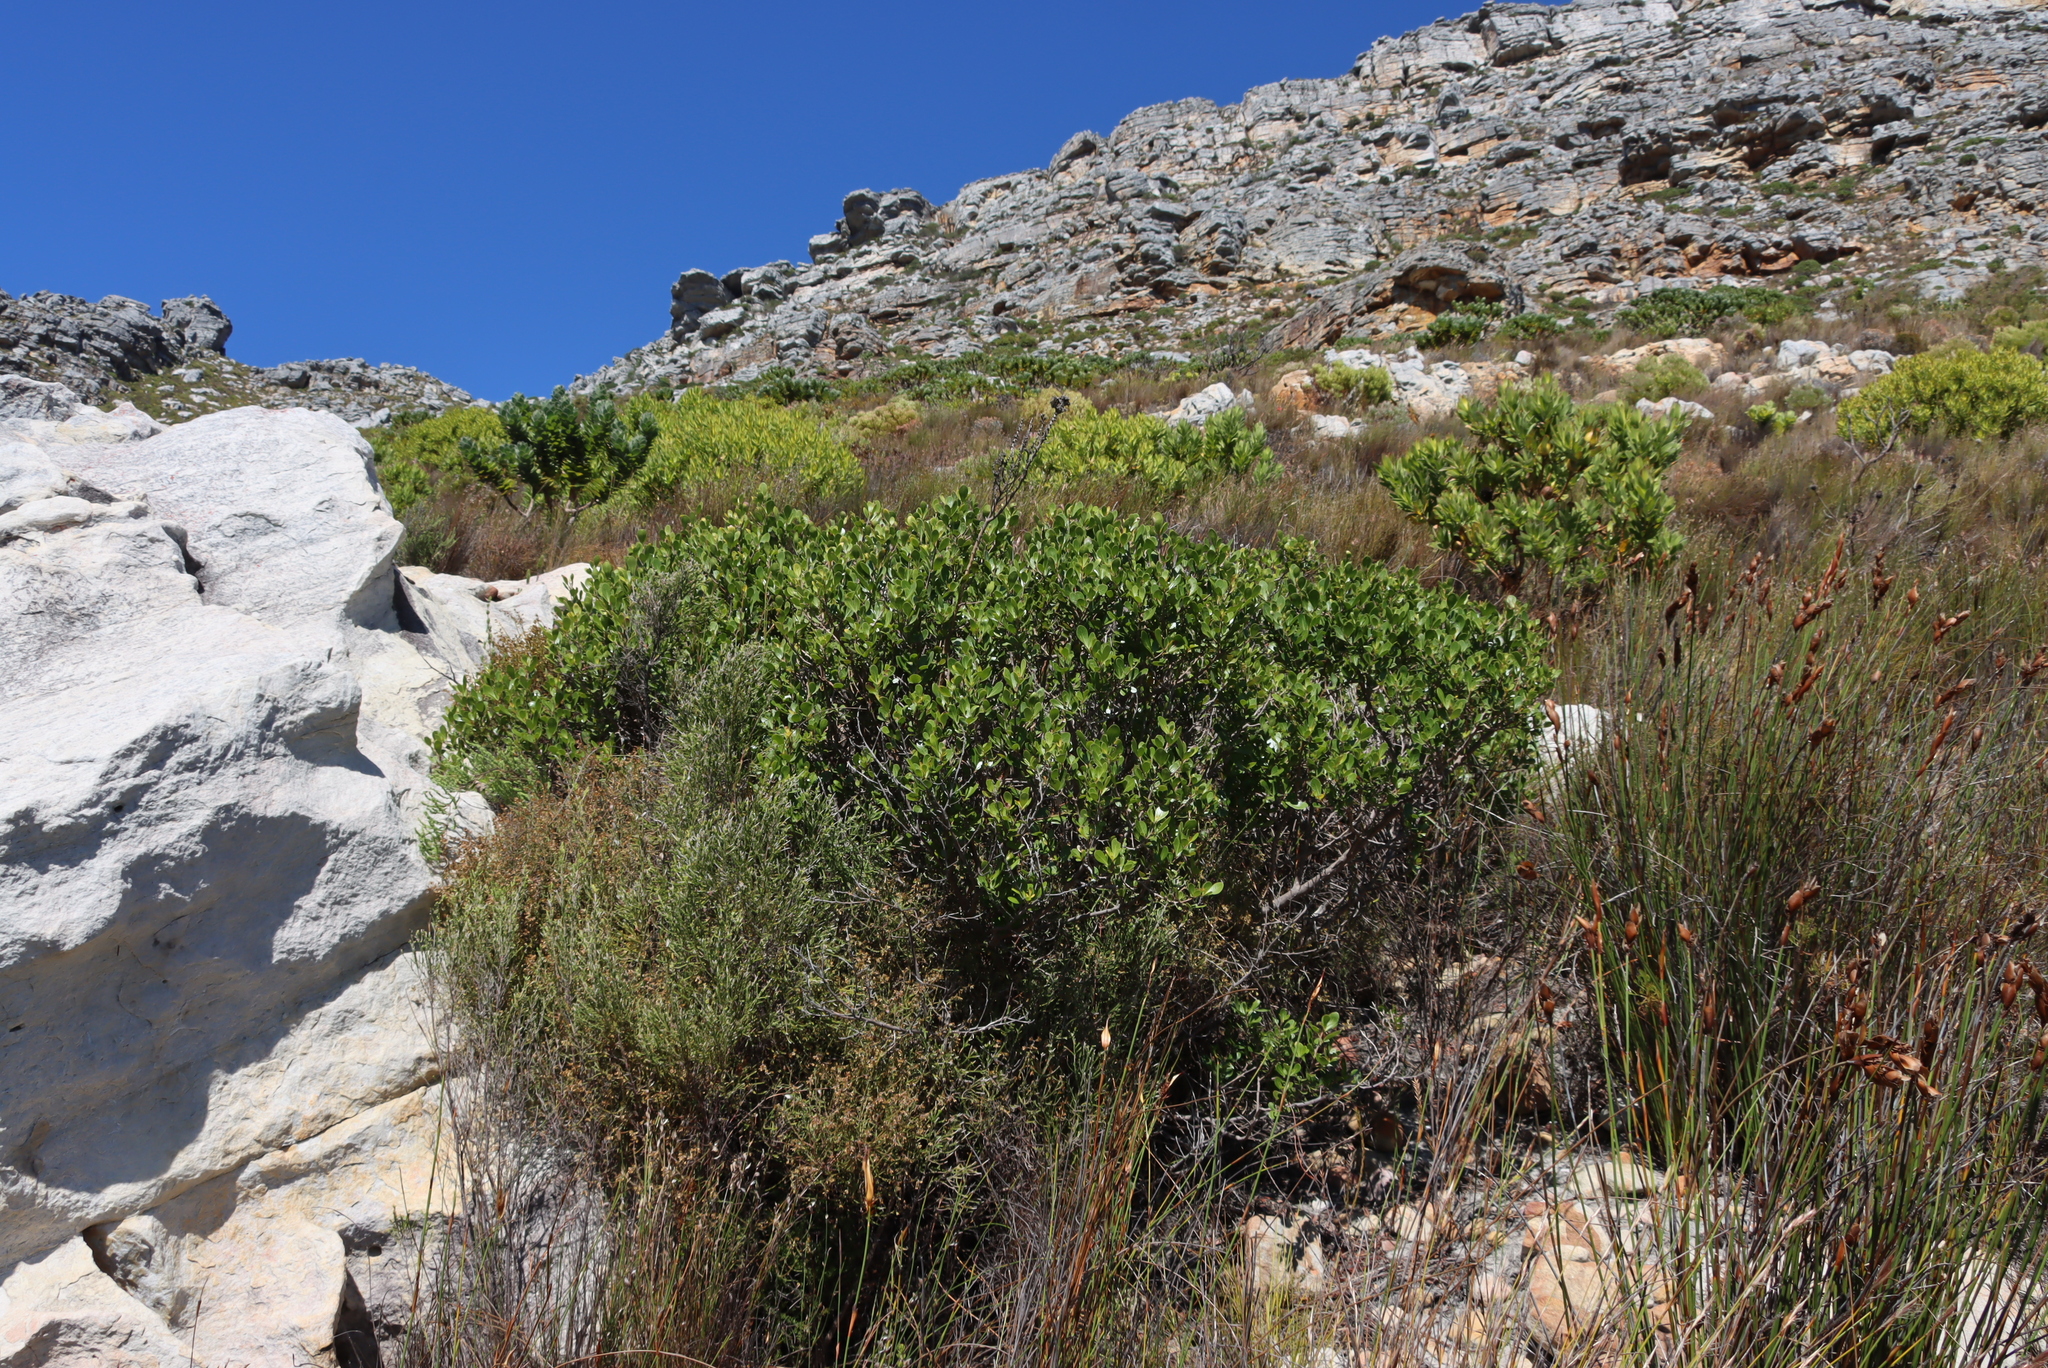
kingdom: Plantae
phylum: Tracheophyta
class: Magnoliopsida
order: Sapindales
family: Anacardiaceae
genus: Searsia
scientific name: Searsia lucida
